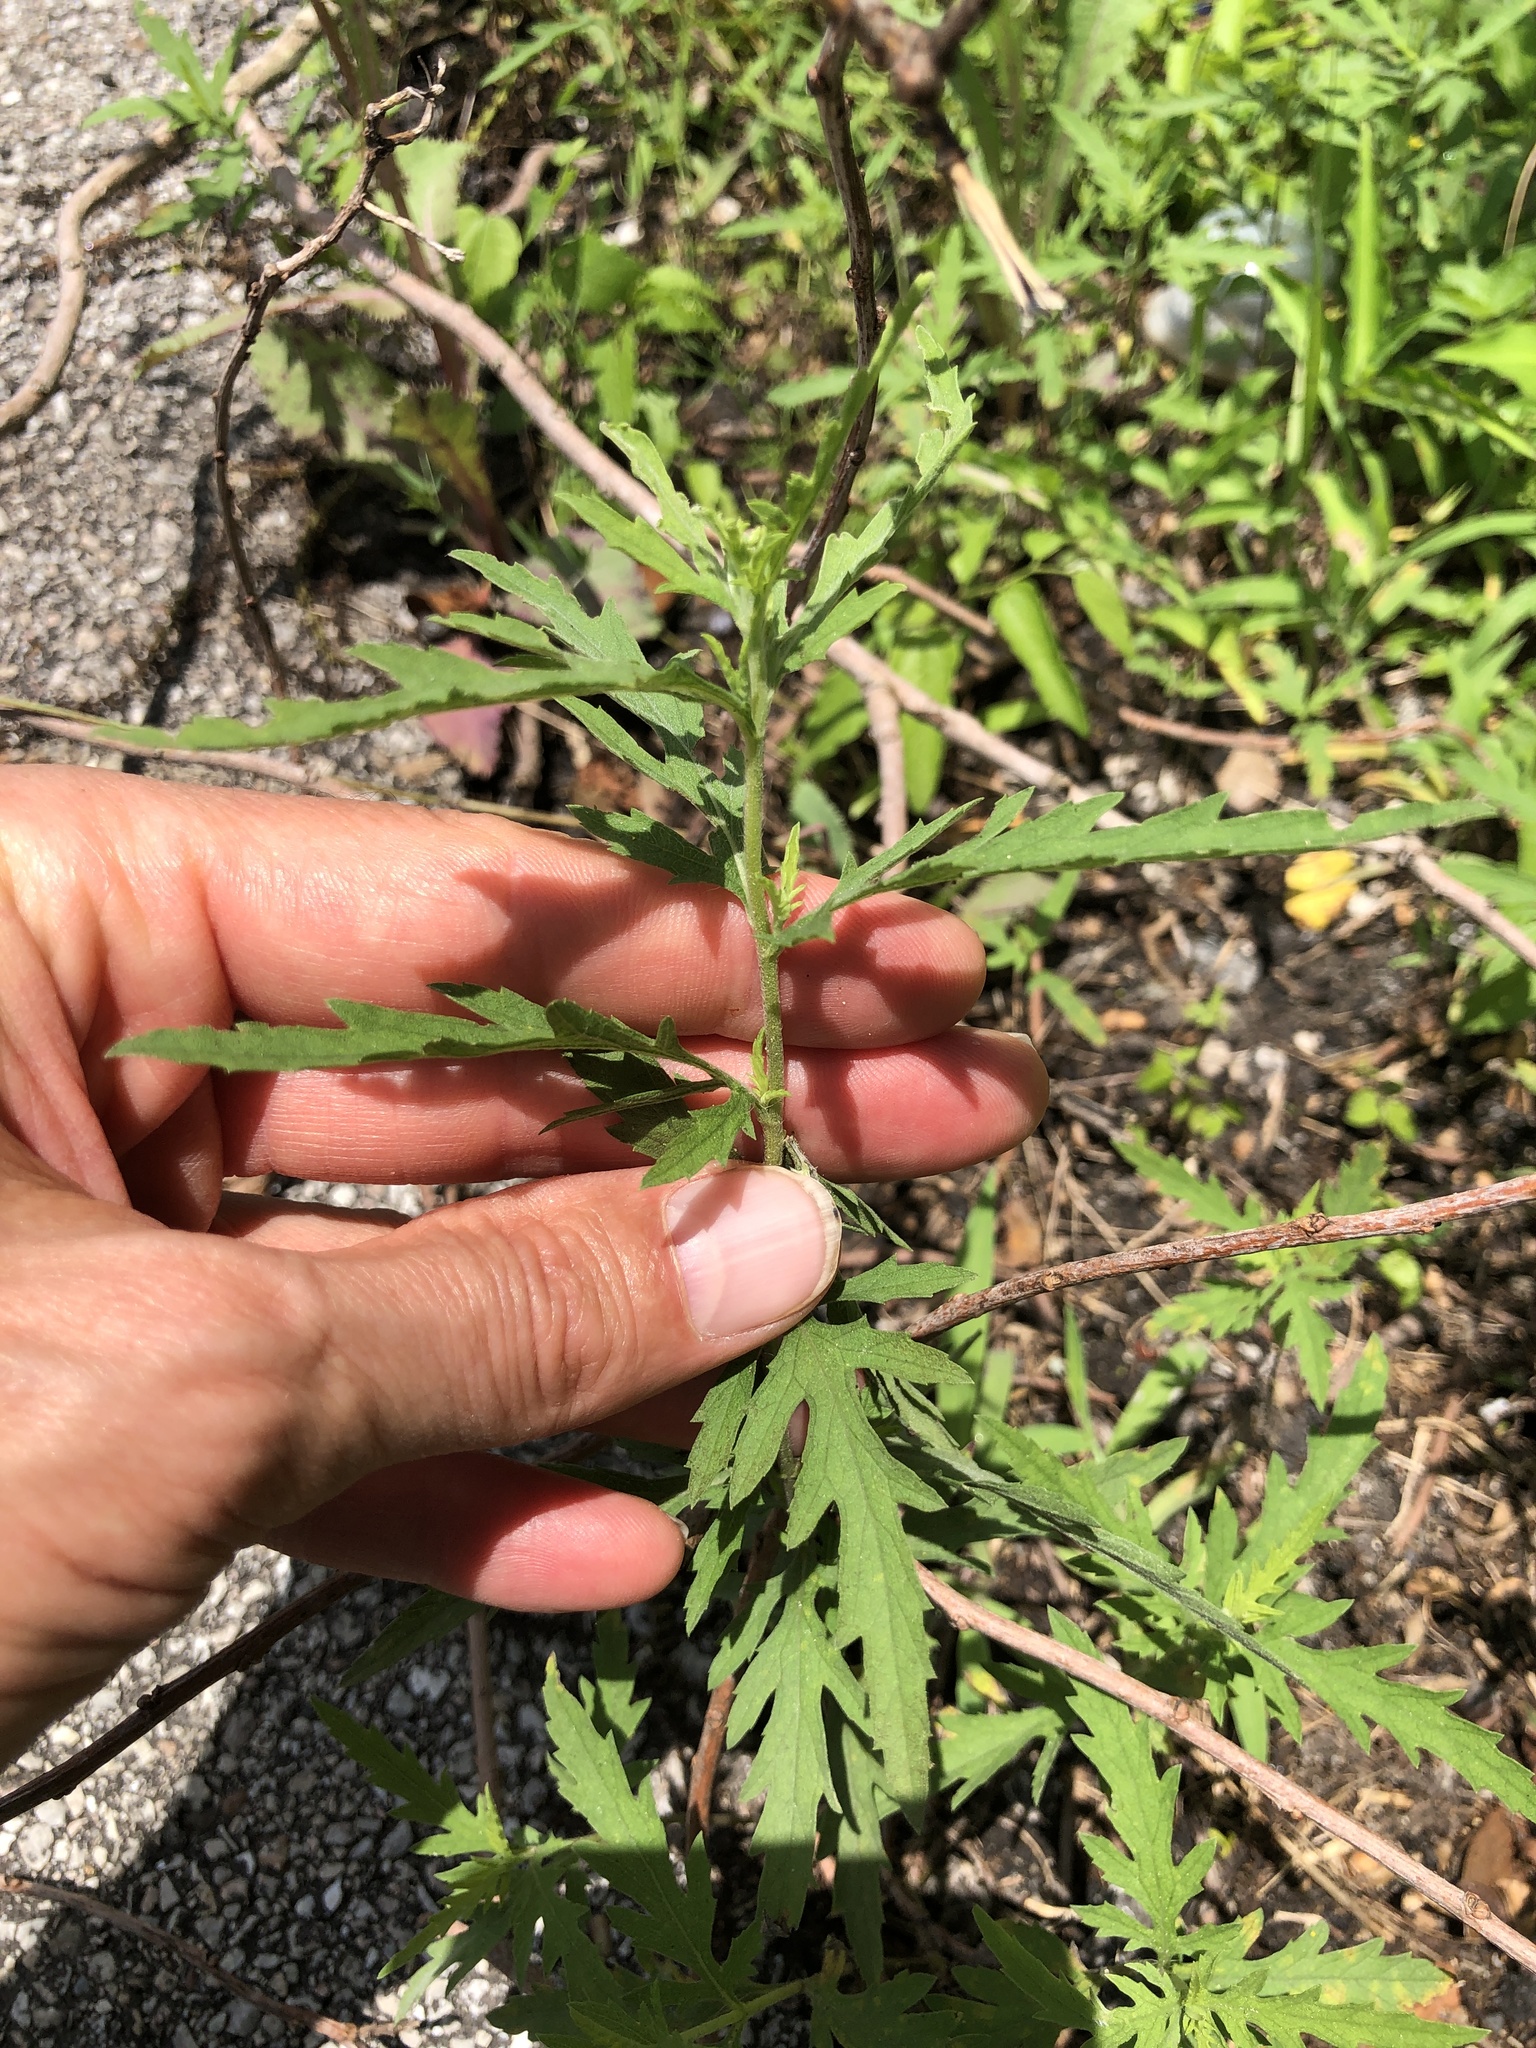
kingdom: Plantae
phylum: Tracheophyta
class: Magnoliopsida
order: Asterales
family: Asteraceae
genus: Ambrosia
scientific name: Ambrosia psilostachya
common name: Perennial ragweed
